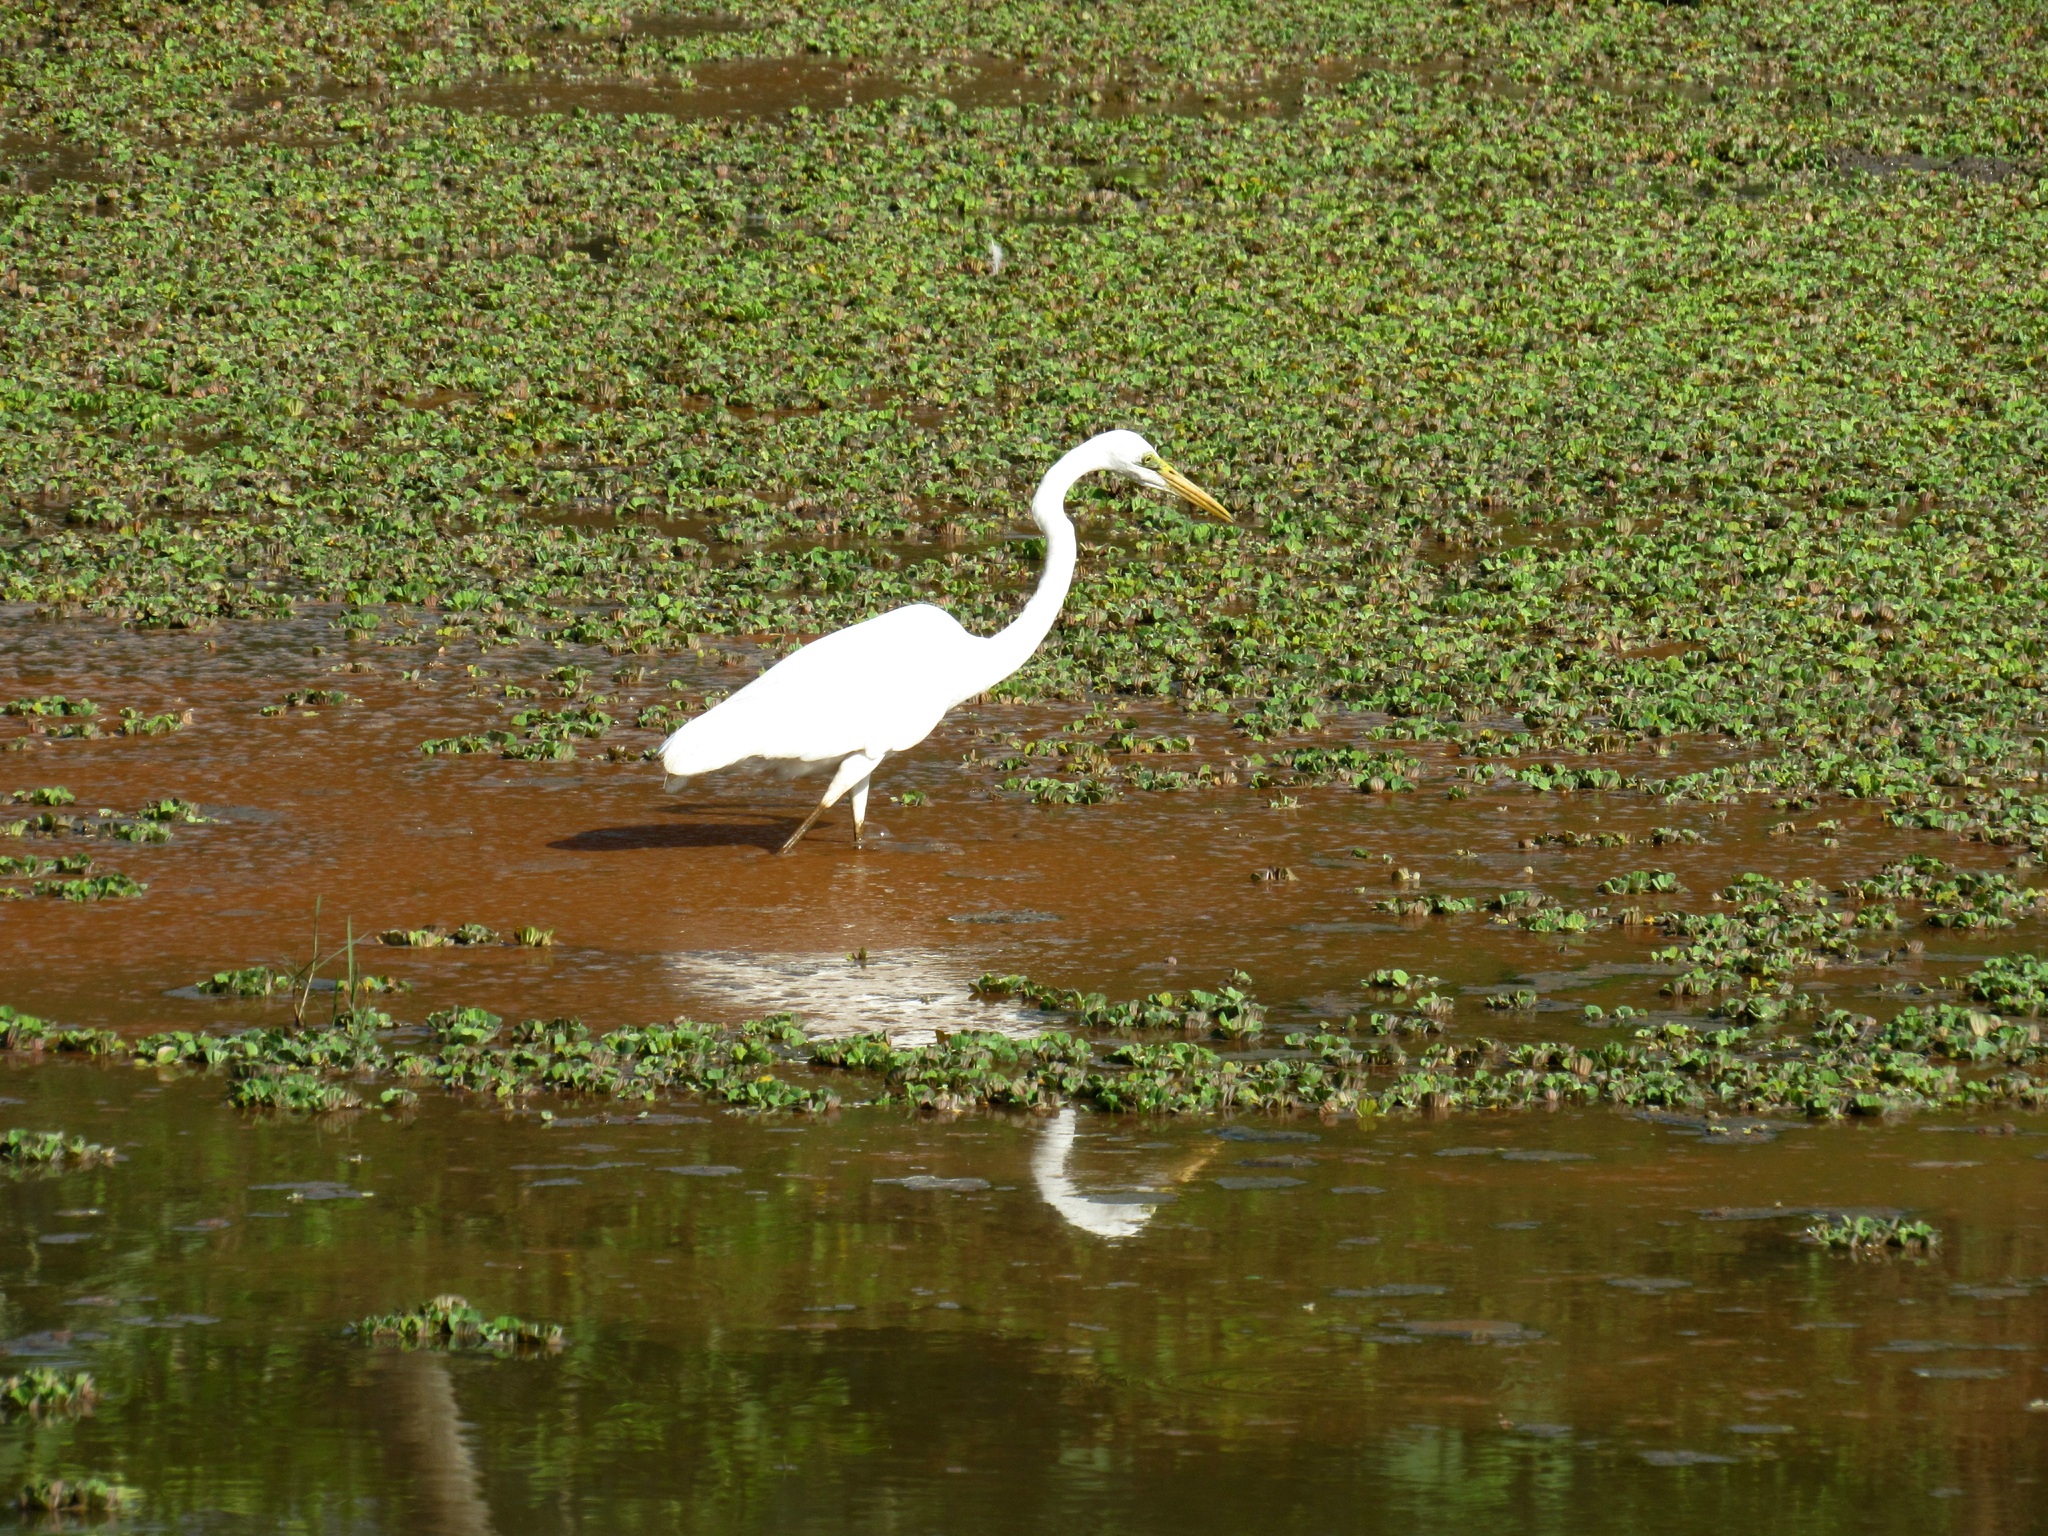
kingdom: Animalia
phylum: Chordata
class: Aves
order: Pelecaniformes
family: Ardeidae
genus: Ardea
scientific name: Ardea alba
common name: Great egret
